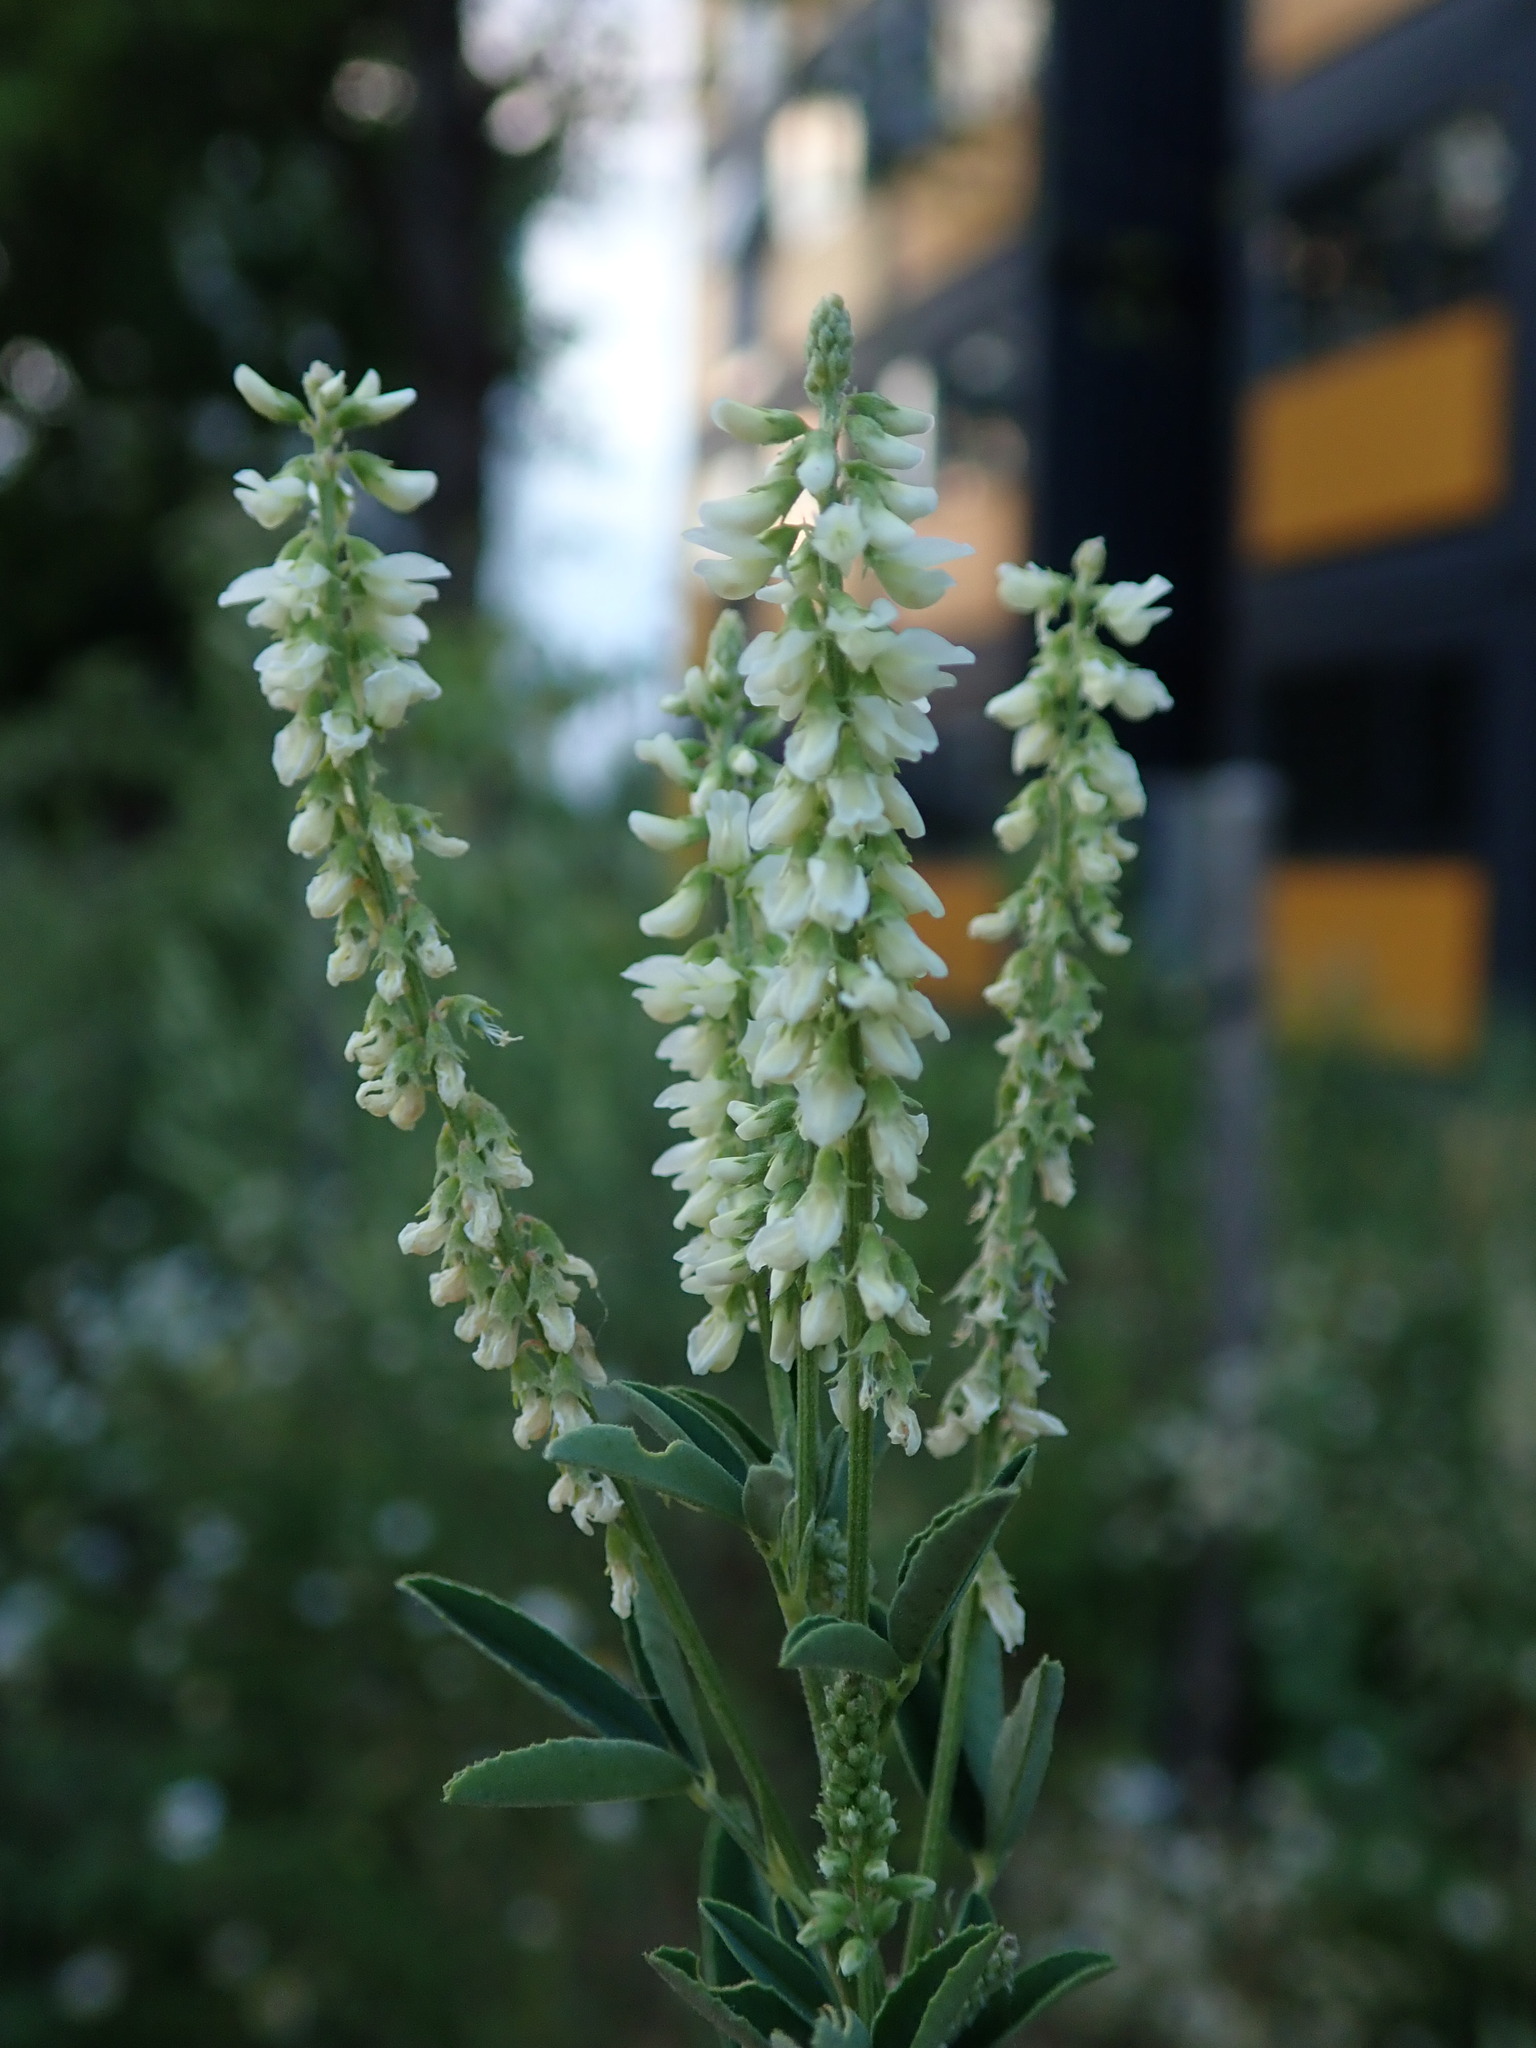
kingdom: Plantae
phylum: Tracheophyta
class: Magnoliopsida
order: Fabales
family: Fabaceae
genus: Melilotus
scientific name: Melilotus albus
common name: White melilot
